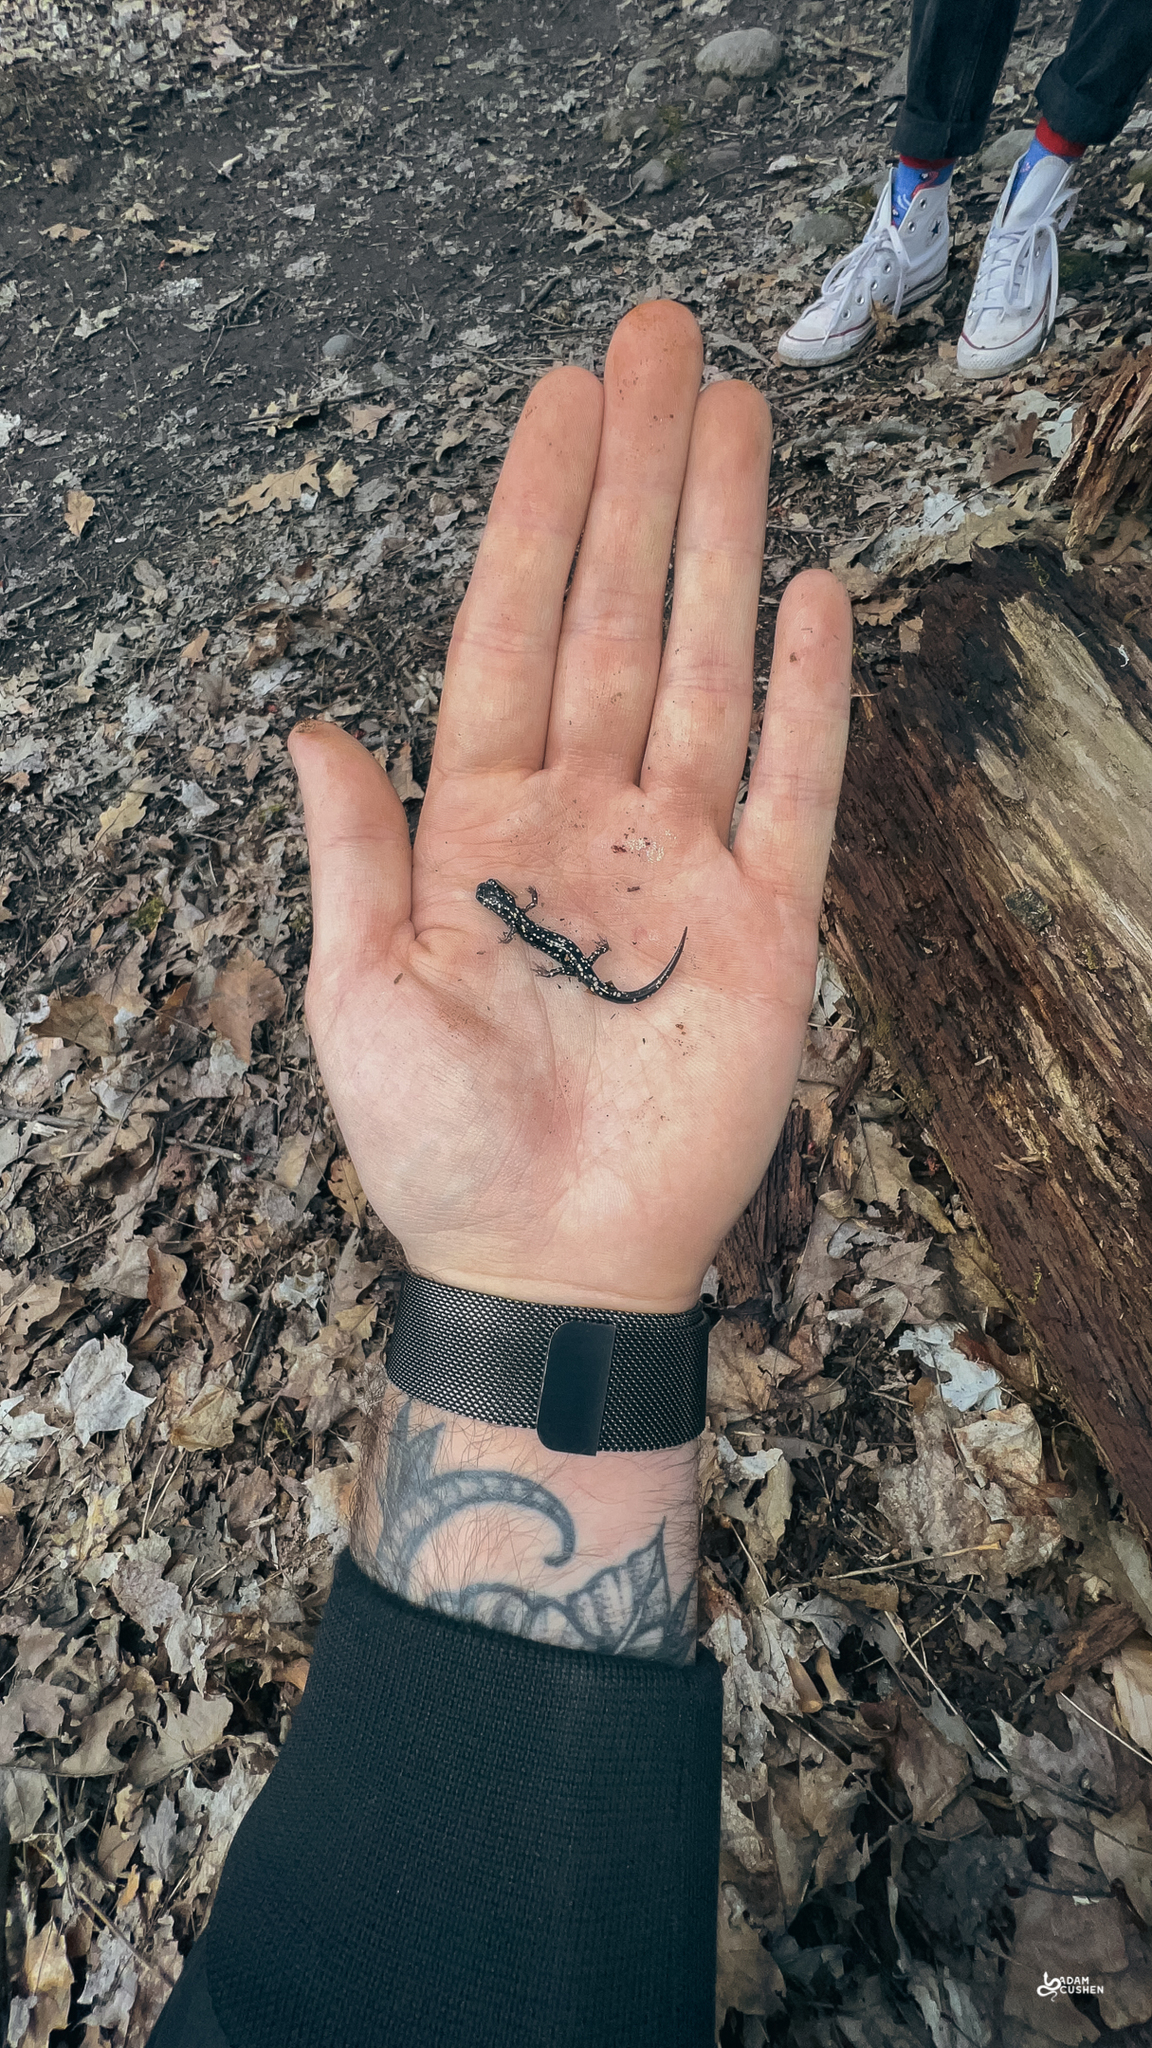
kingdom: Animalia
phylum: Chordata
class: Amphibia
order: Caudata
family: Plethodontidae
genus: Plethodon
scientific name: Plethodon glutinosus
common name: Northern slimy salamander
